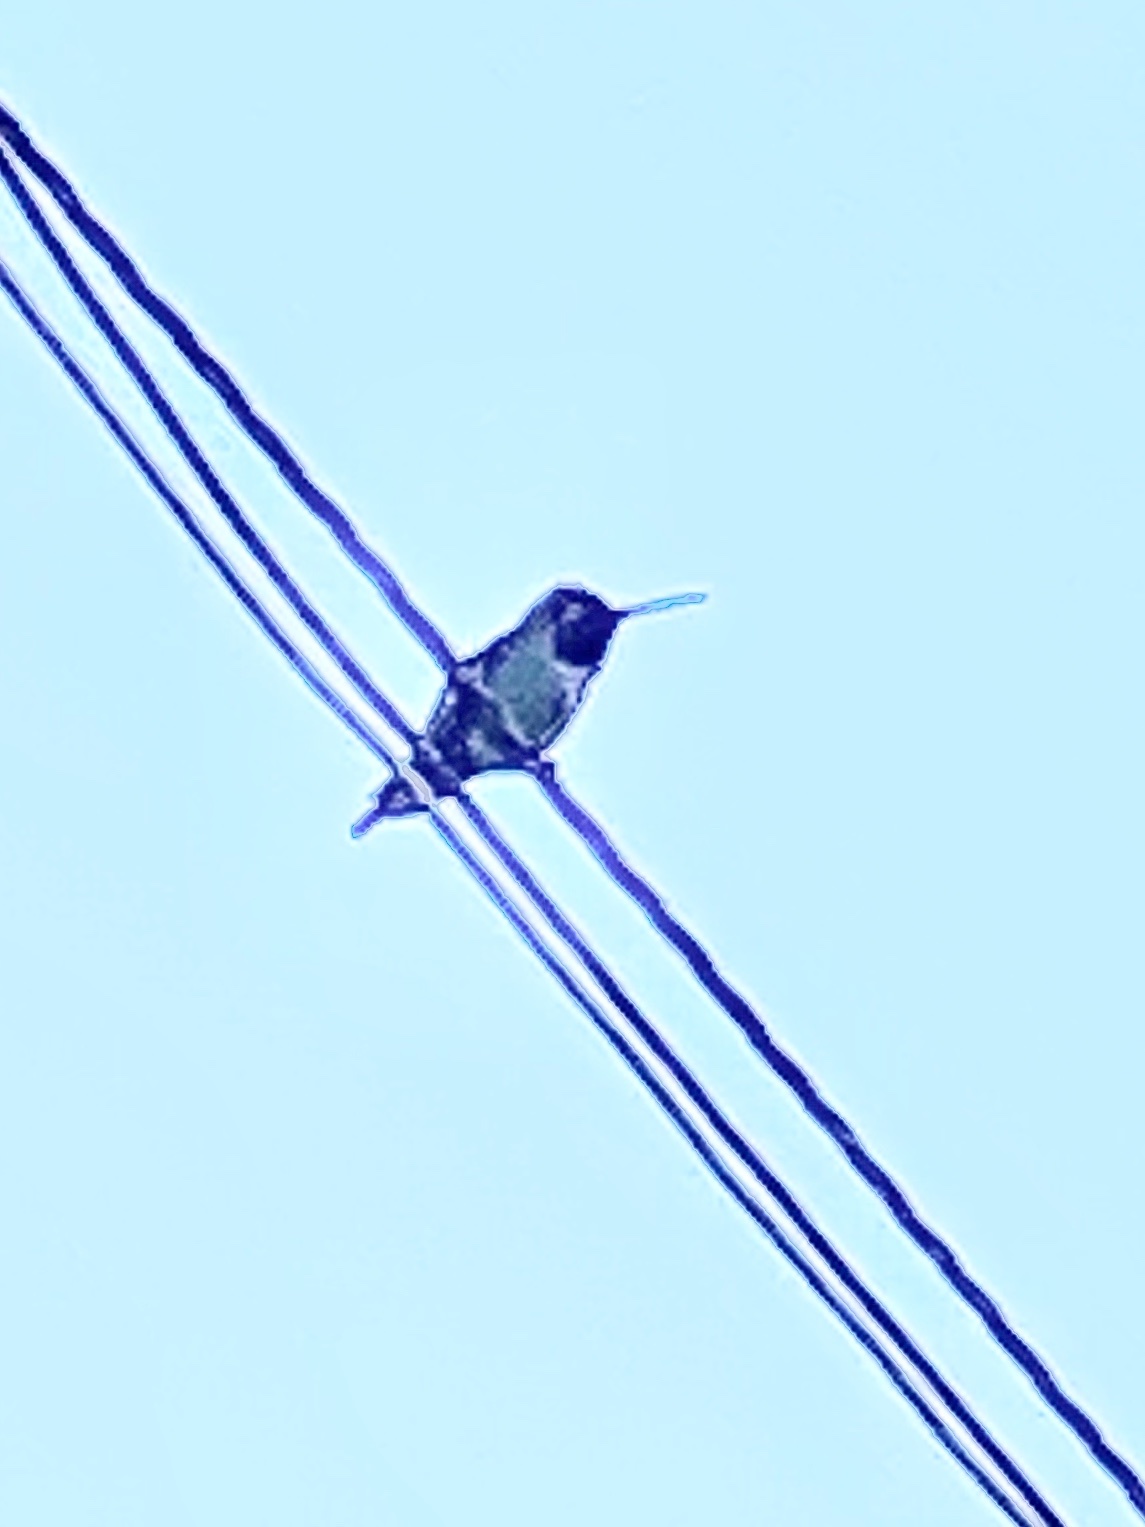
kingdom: Animalia
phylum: Chordata
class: Aves
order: Apodiformes
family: Trochilidae
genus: Calypte
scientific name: Calypte anna
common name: Anna's hummingbird
